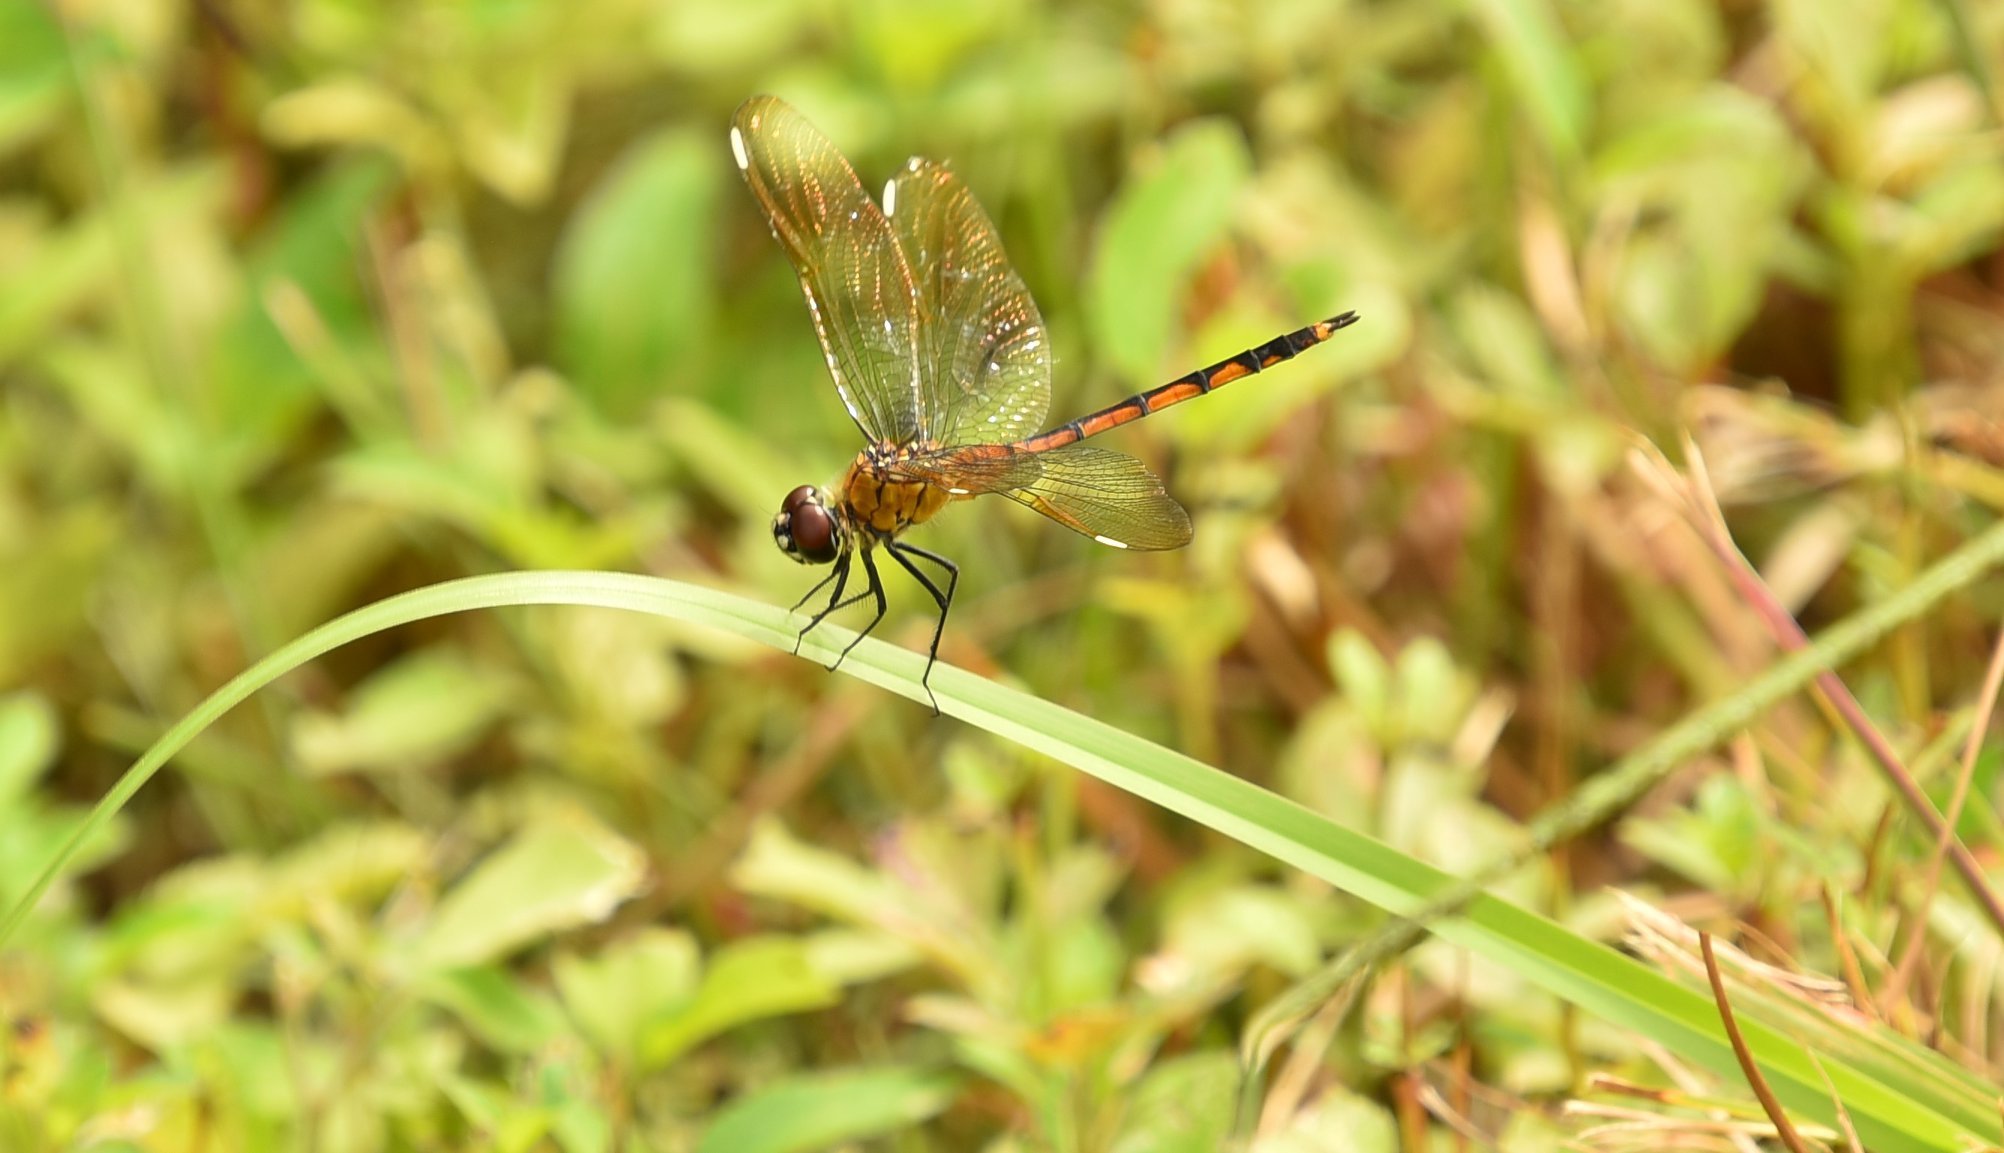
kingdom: Animalia
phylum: Arthropoda
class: Insecta
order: Odonata
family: Libellulidae
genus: Brachymesia
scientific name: Brachymesia gravida
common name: Four-spotted pennant
